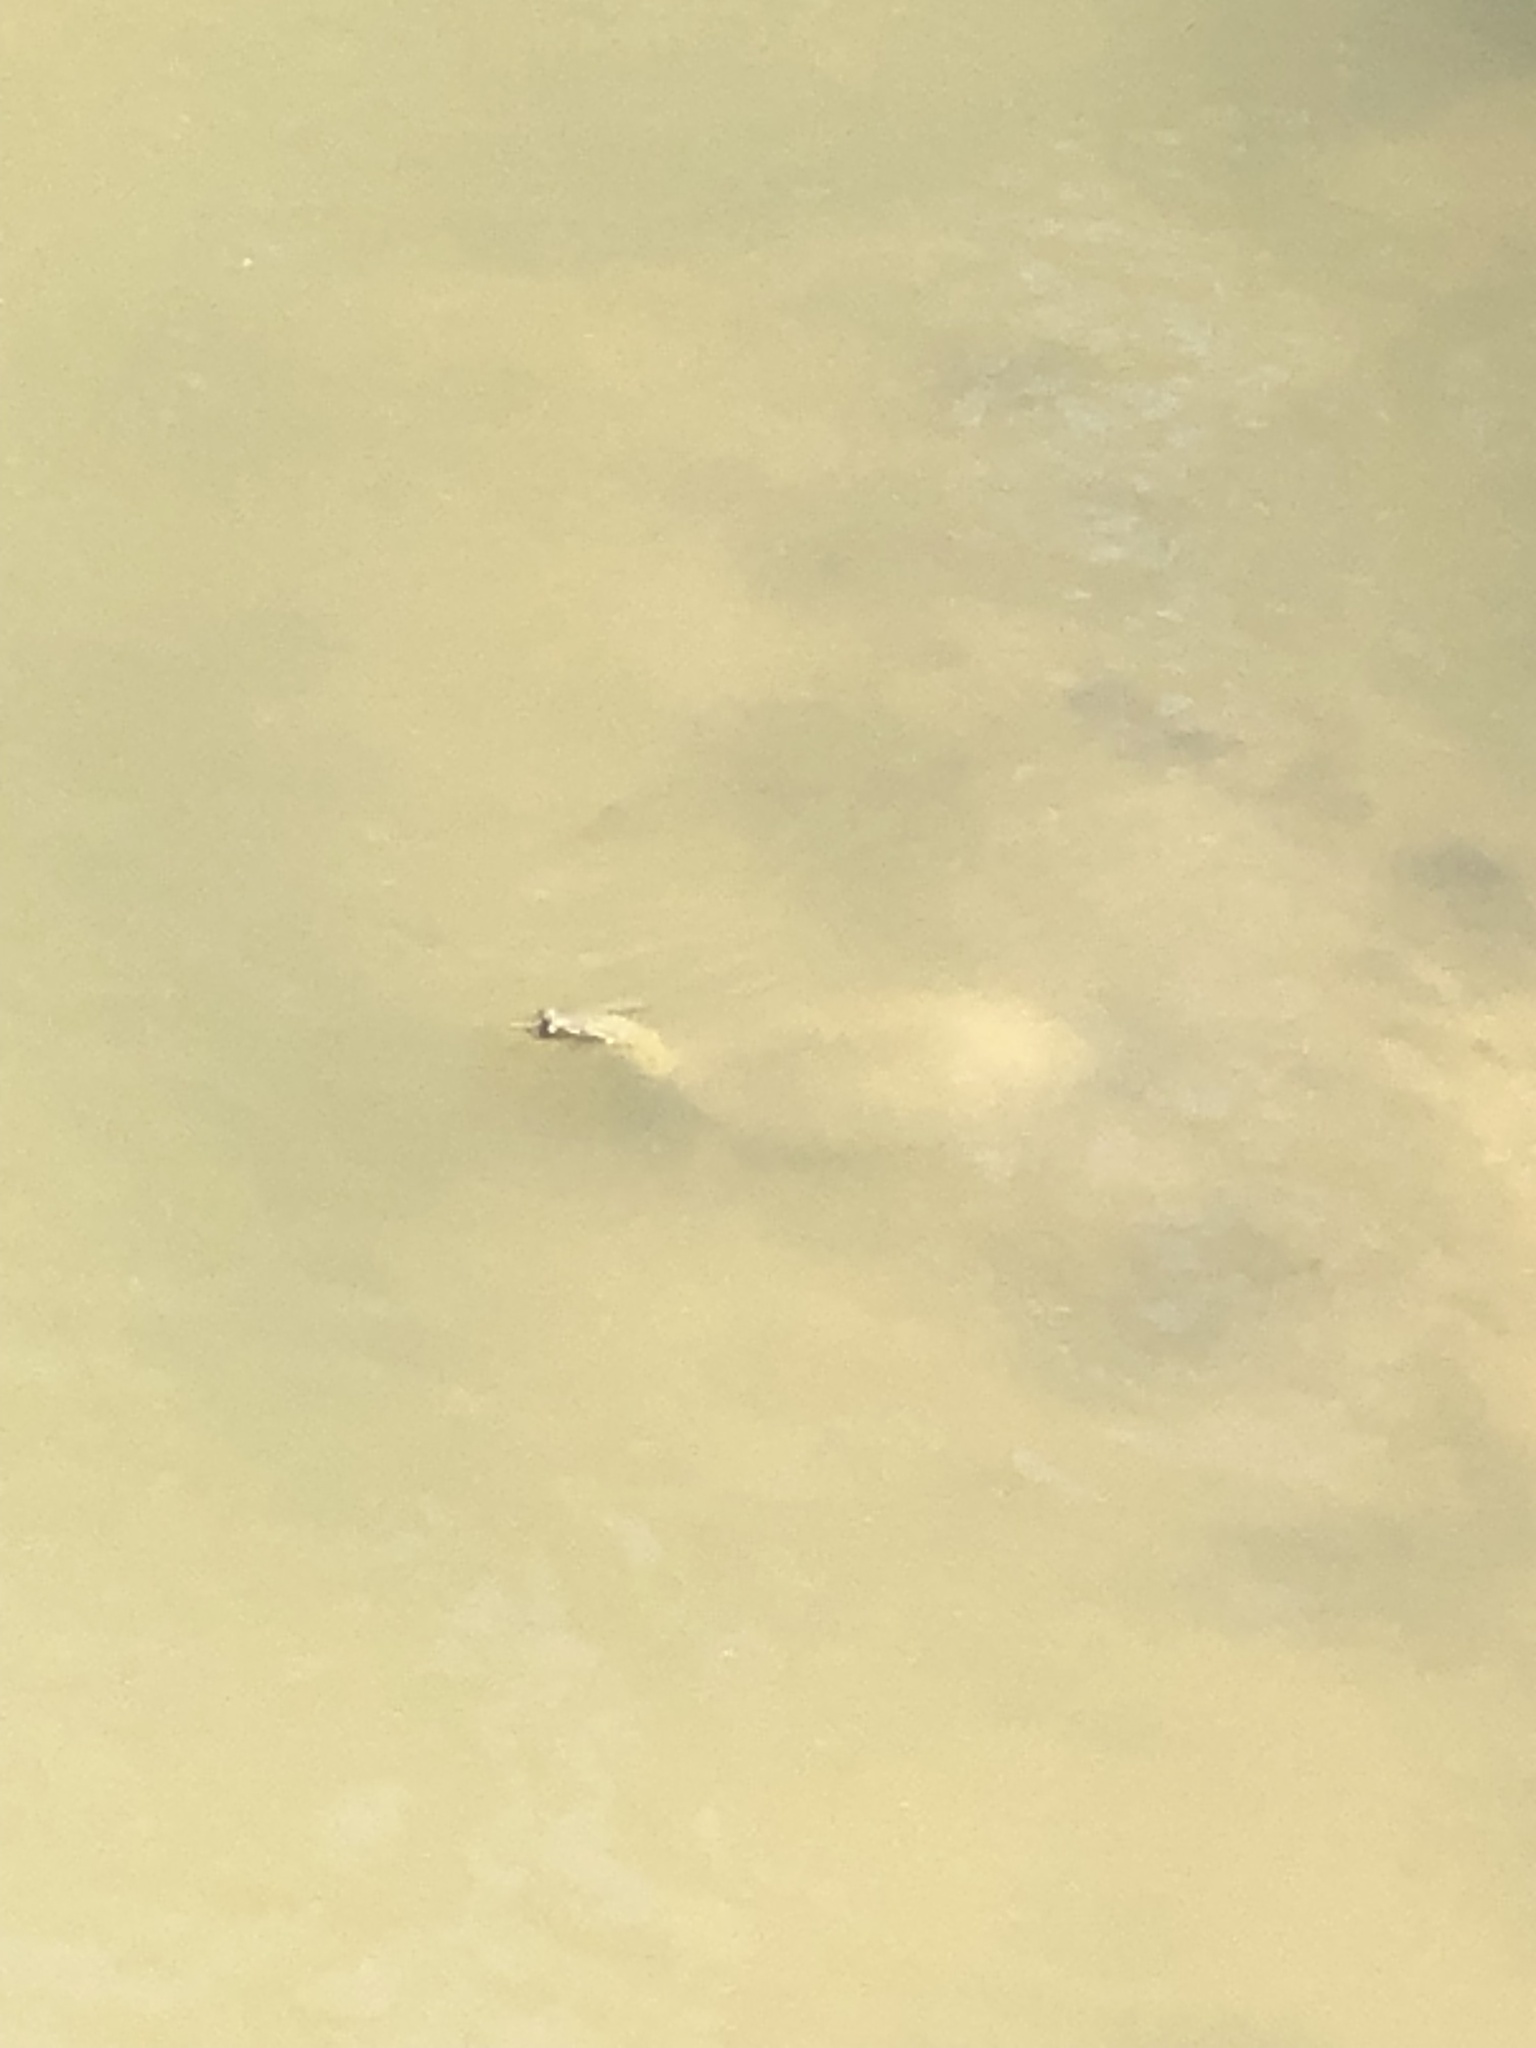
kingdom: Animalia
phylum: Chordata
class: Testudines
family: Trionychidae
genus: Apalone
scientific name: Apalone spinifera
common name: Spiny softshell turtle
